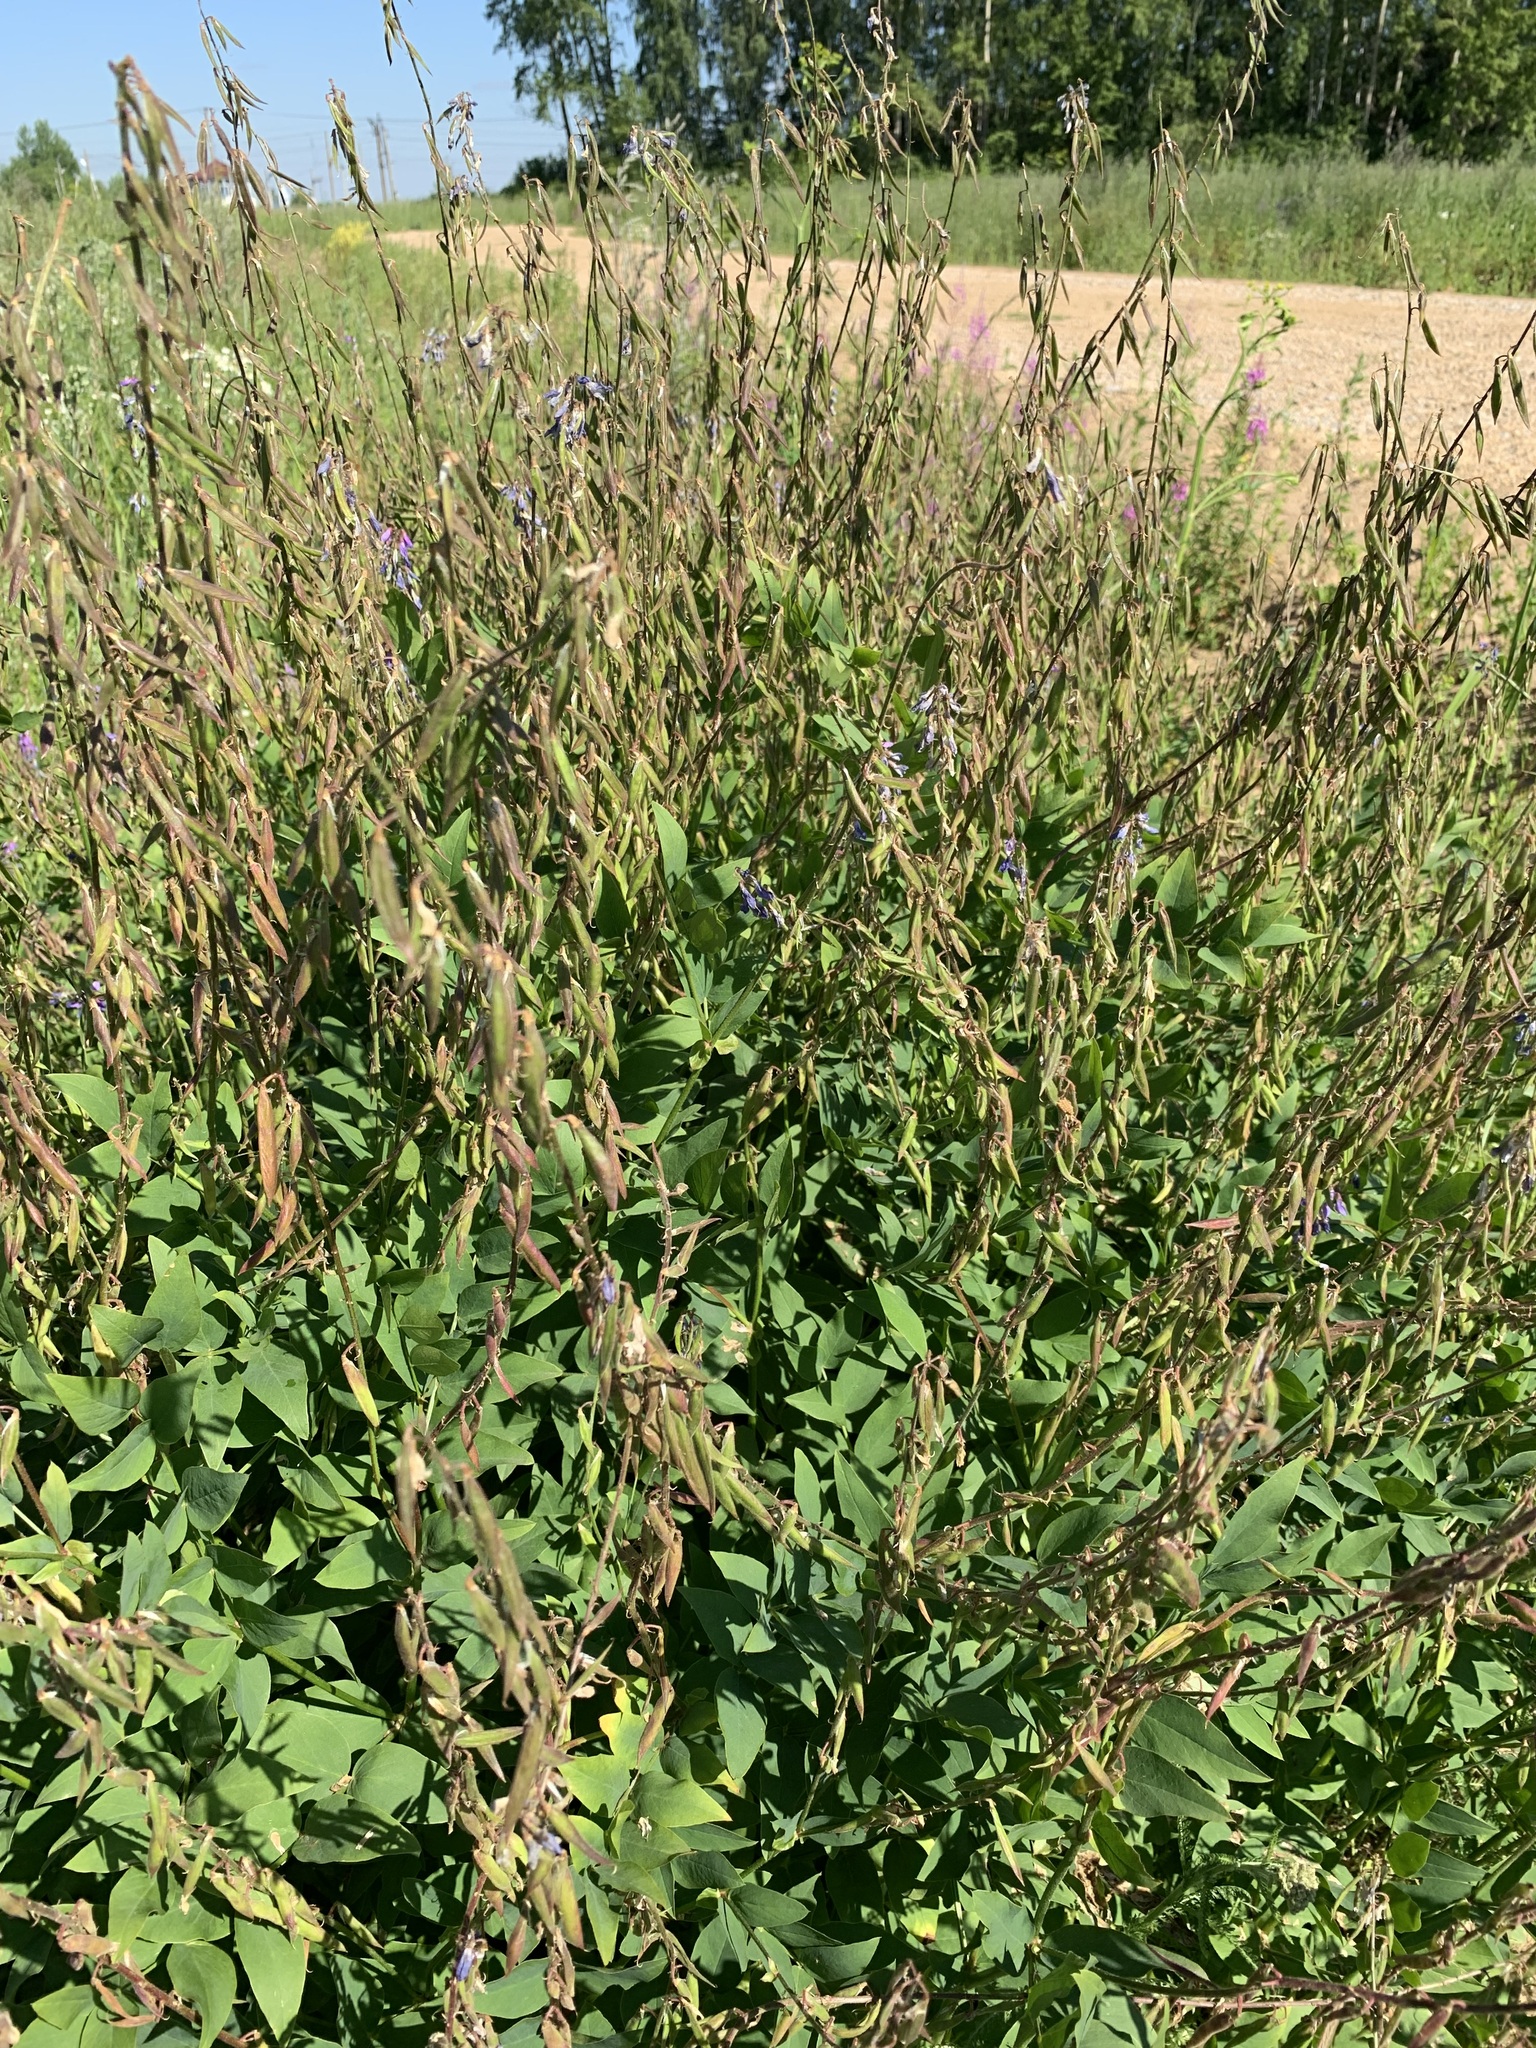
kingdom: Plantae
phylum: Tracheophyta
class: Magnoliopsida
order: Fabales
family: Fabaceae
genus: Galega
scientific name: Galega orientalis
